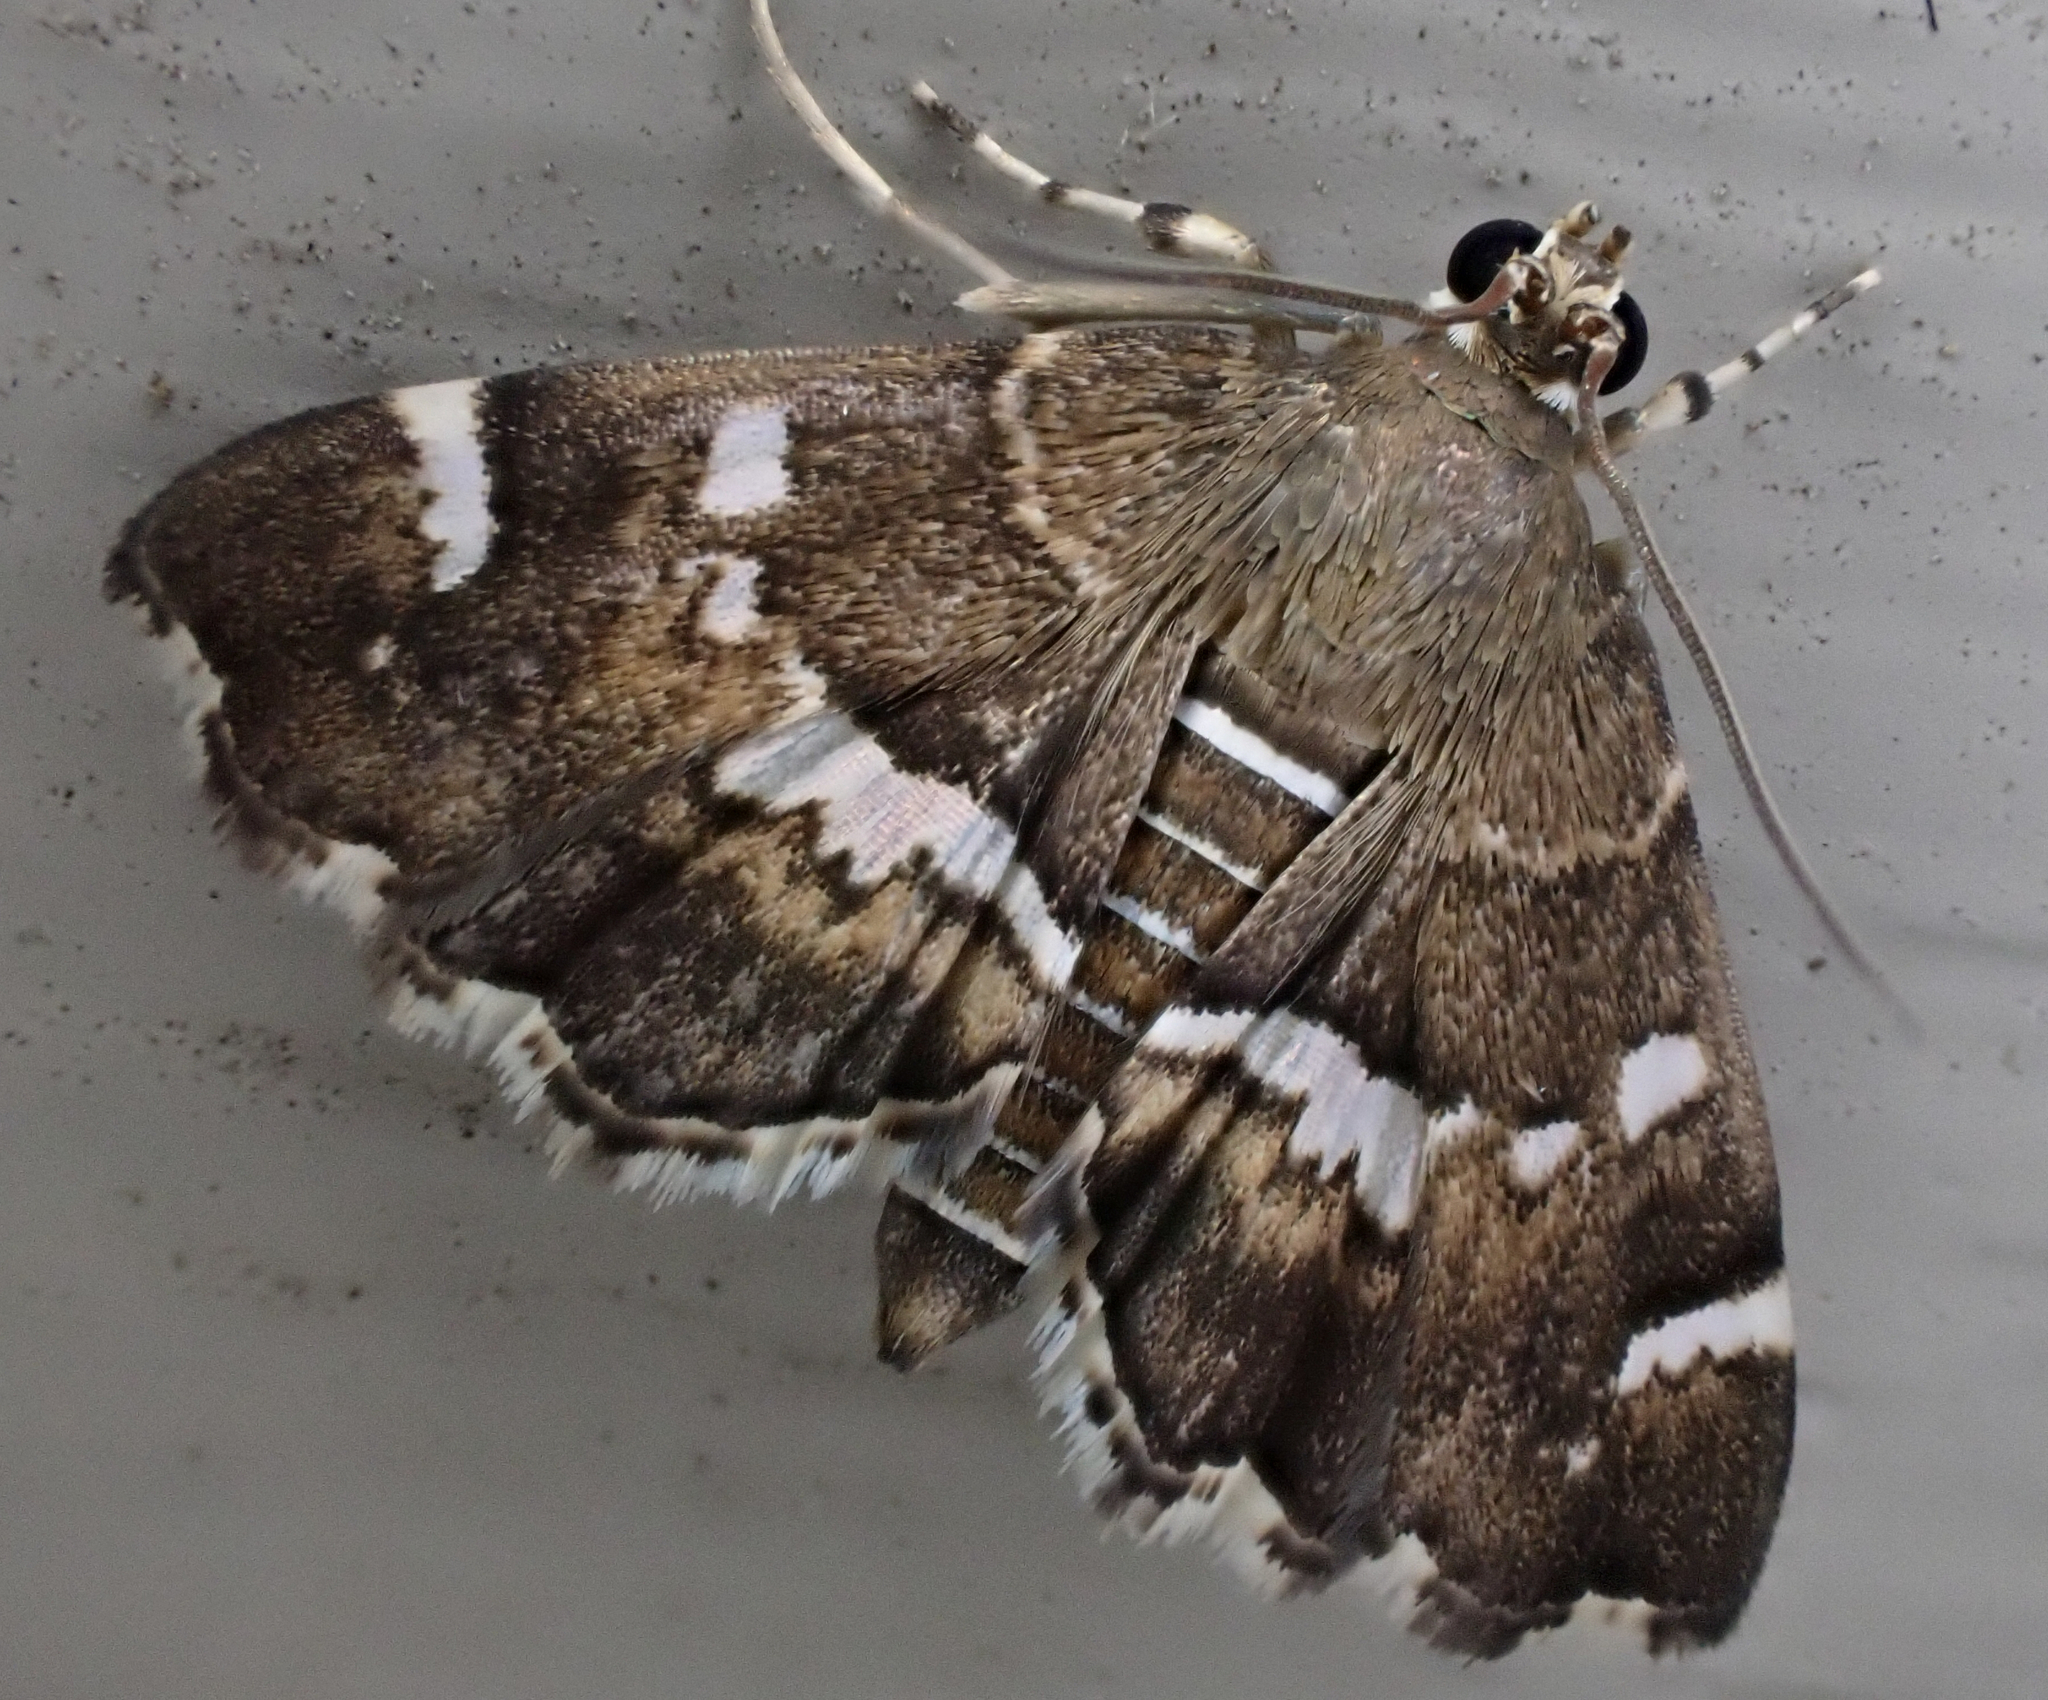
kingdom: Animalia
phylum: Arthropoda
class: Insecta
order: Lepidoptera
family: Crambidae
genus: Hymenia
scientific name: Hymenia perspectalis
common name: Spotted beet webworm
